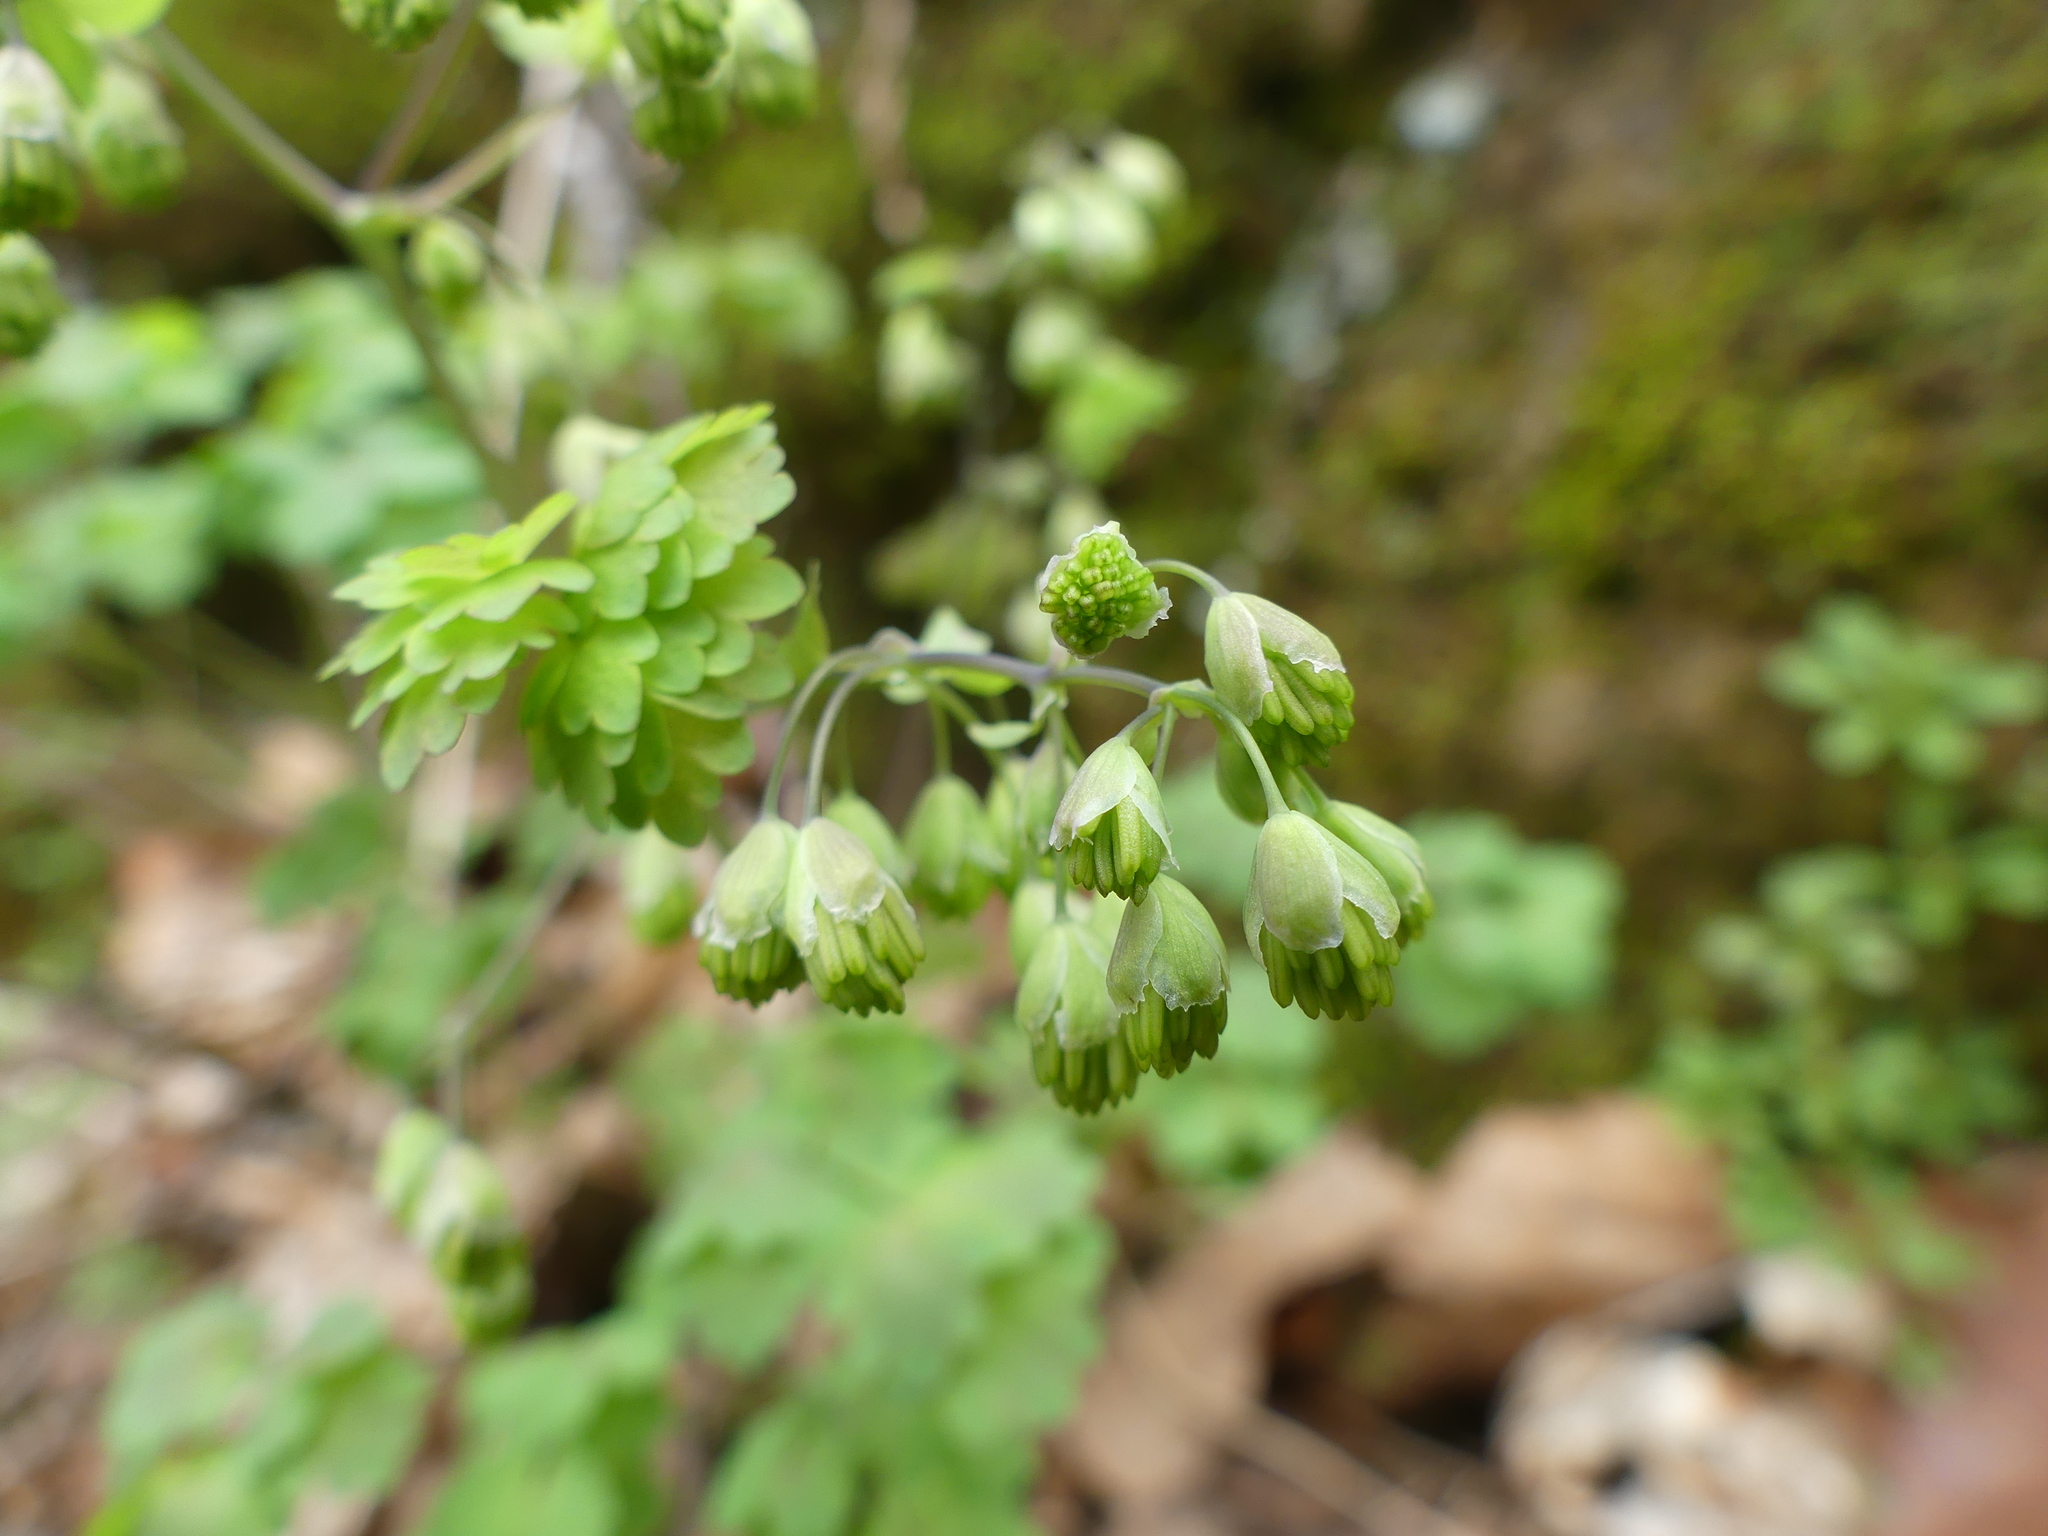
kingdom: Plantae
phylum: Tracheophyta
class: Magnoliopsida
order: Ranunculales
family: Ranunculaceae
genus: Thalictrum
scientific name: Thalictrum dioicum
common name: Early meadow-rue
